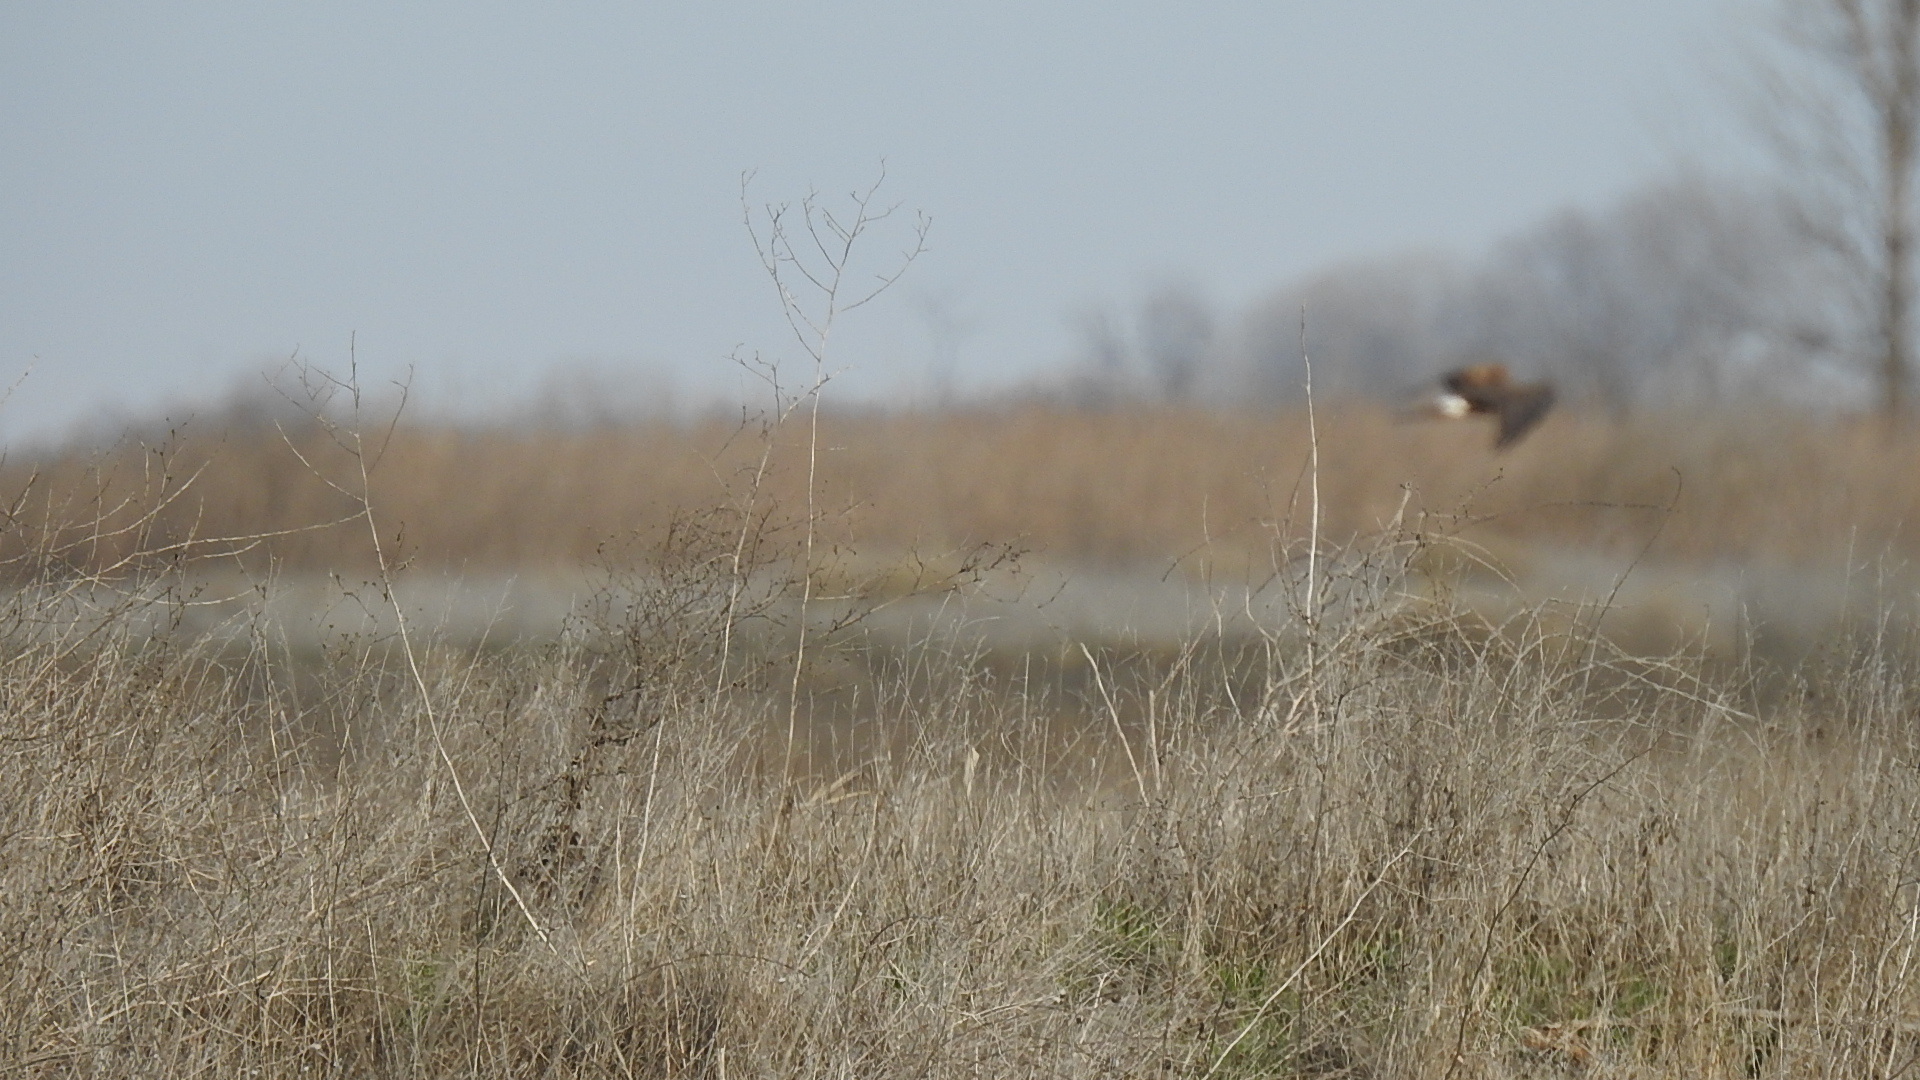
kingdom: Animalia
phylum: Chordata
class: Aves
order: Accipitriformes
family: Accipitridae
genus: Circus
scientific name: Circus cyaneus
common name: Hen harrier
